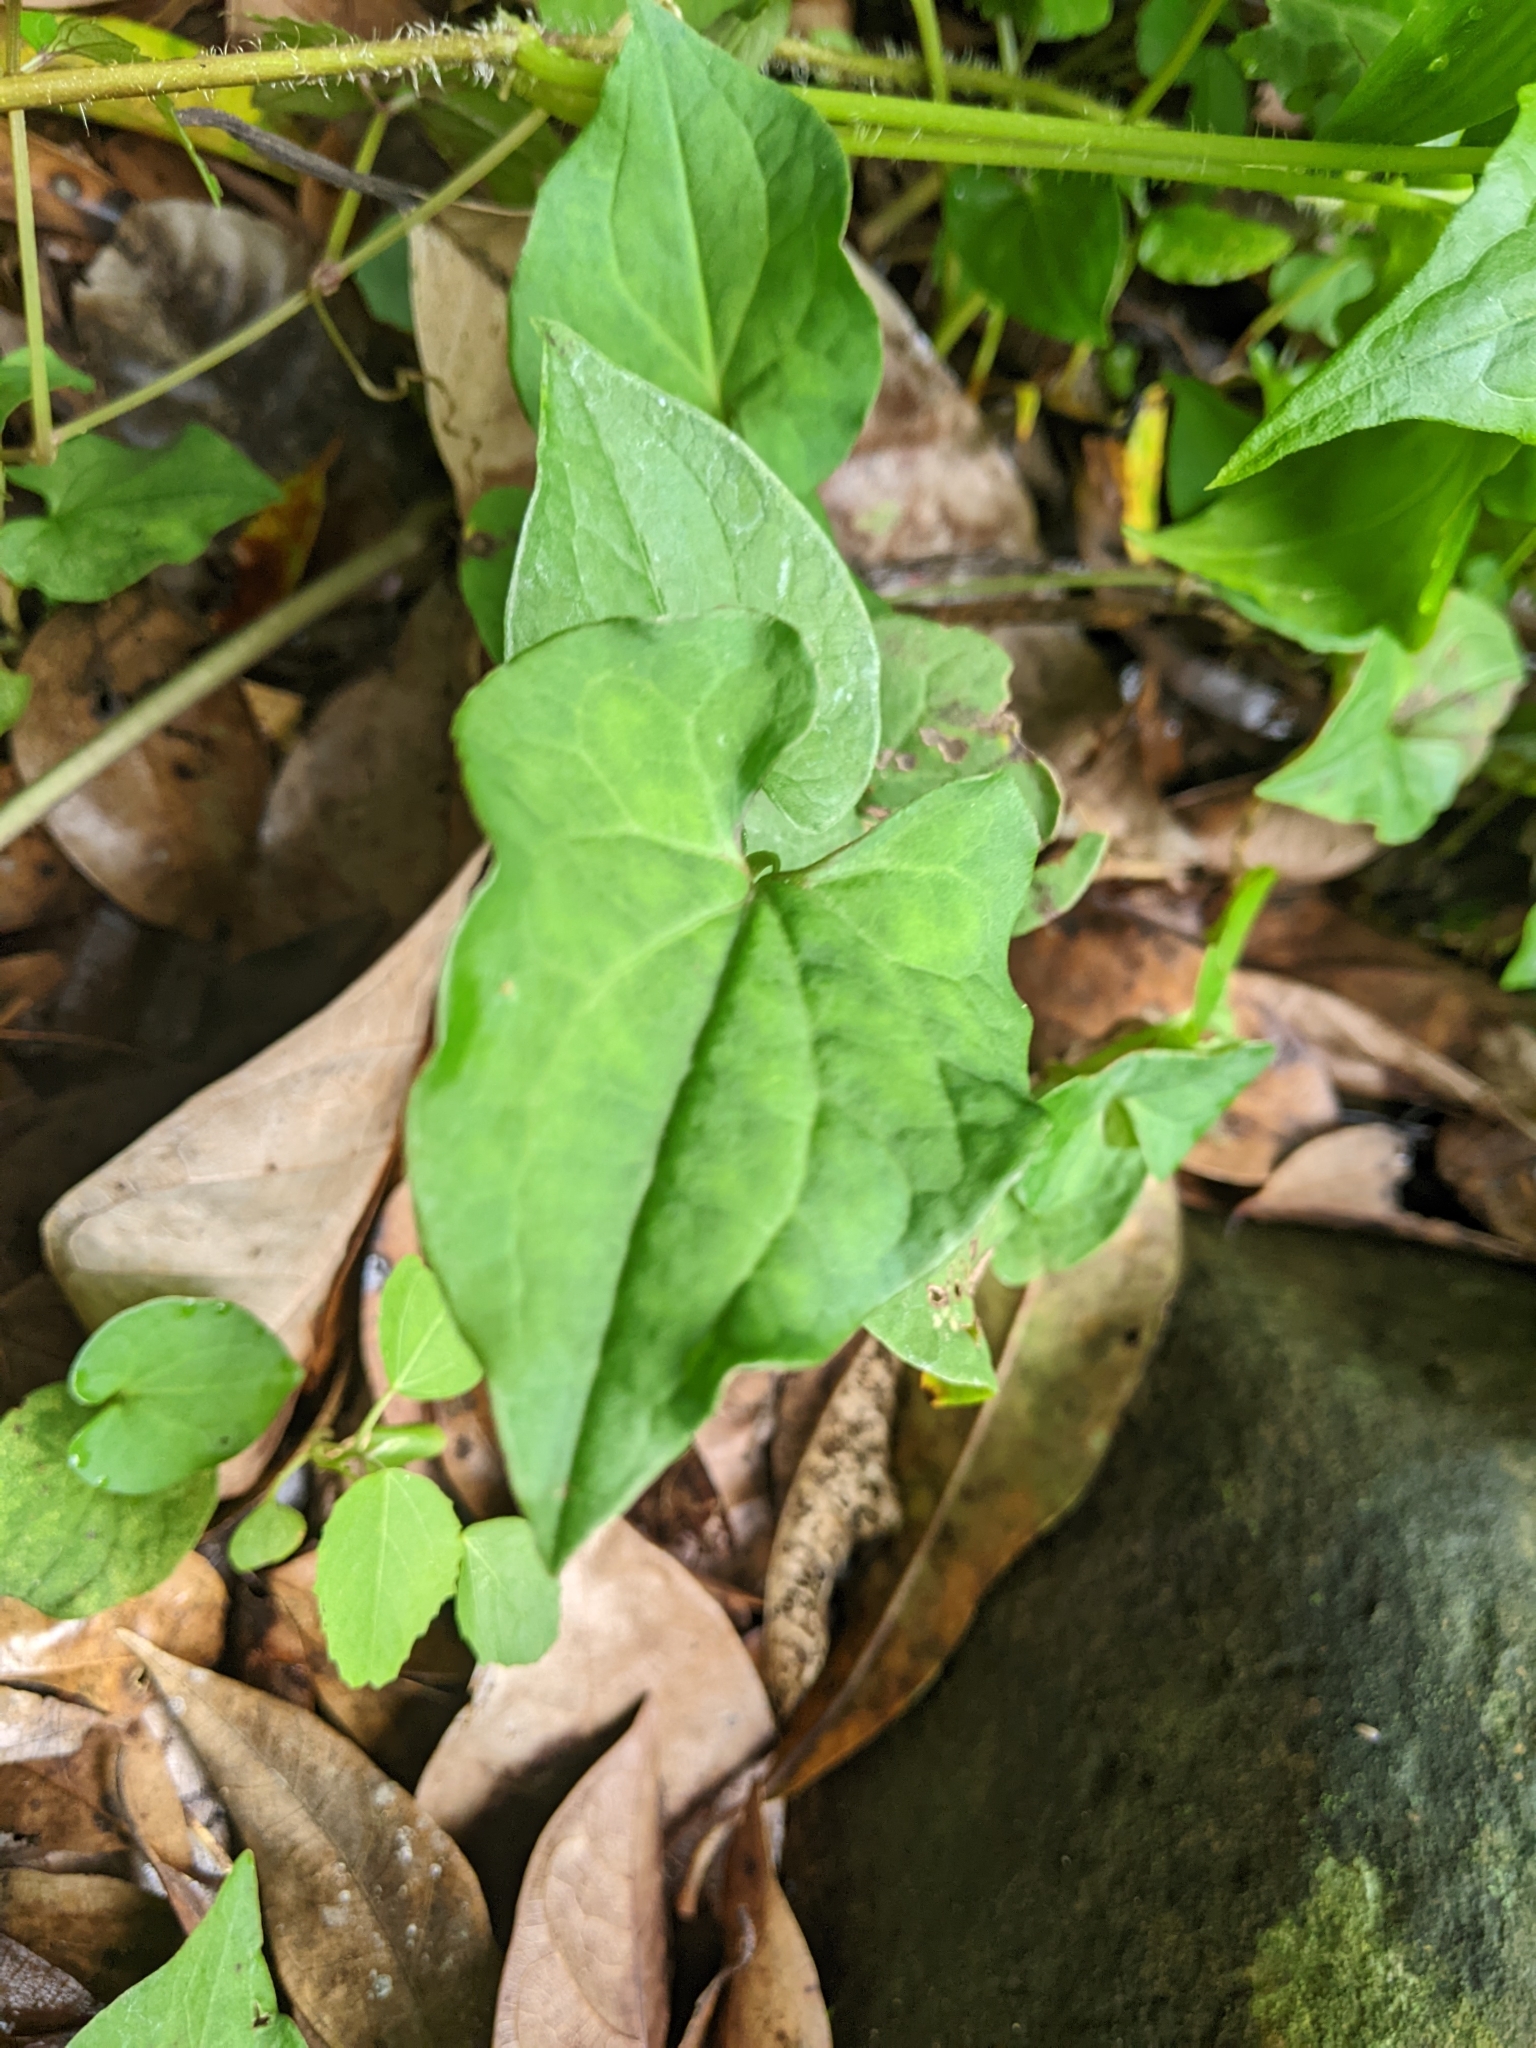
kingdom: Plantae
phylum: Tracheophyta
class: Magnoliopsida
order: Piperales
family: Saururaceae
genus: Houttuynia
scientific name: Houttuynia cordata
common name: Chameleon
